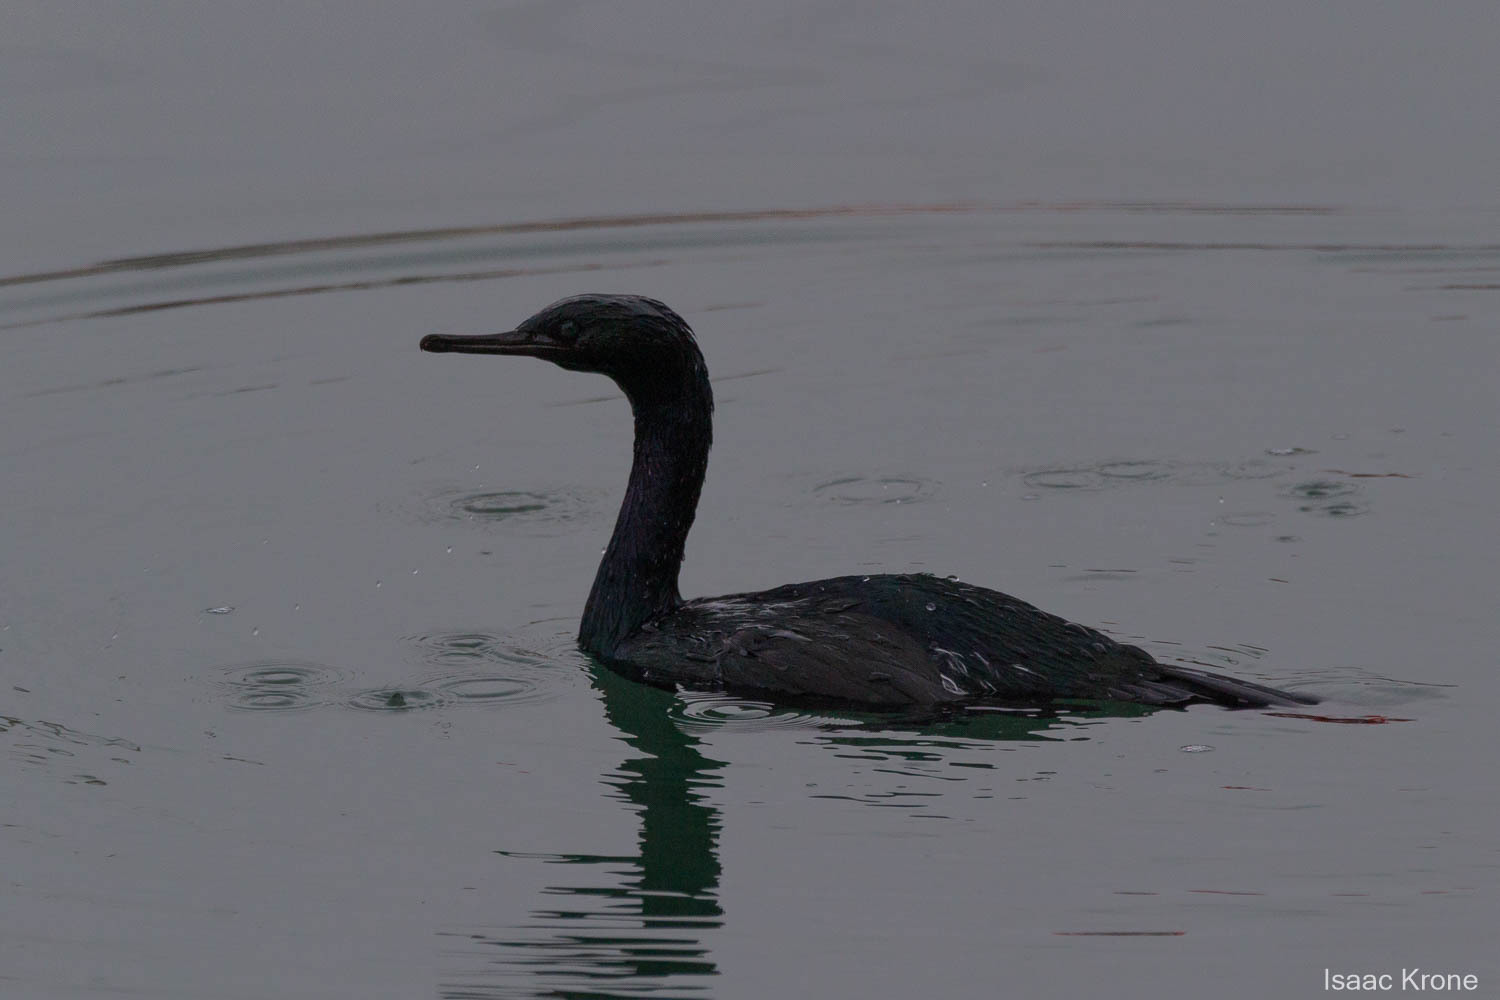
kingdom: Animalia
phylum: Chordata
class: Aves
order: Suliformes
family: Phalacrocoracidae
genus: Phalacrocorax
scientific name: Phalacrocorax pelagicus
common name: Pelagic cormorant
